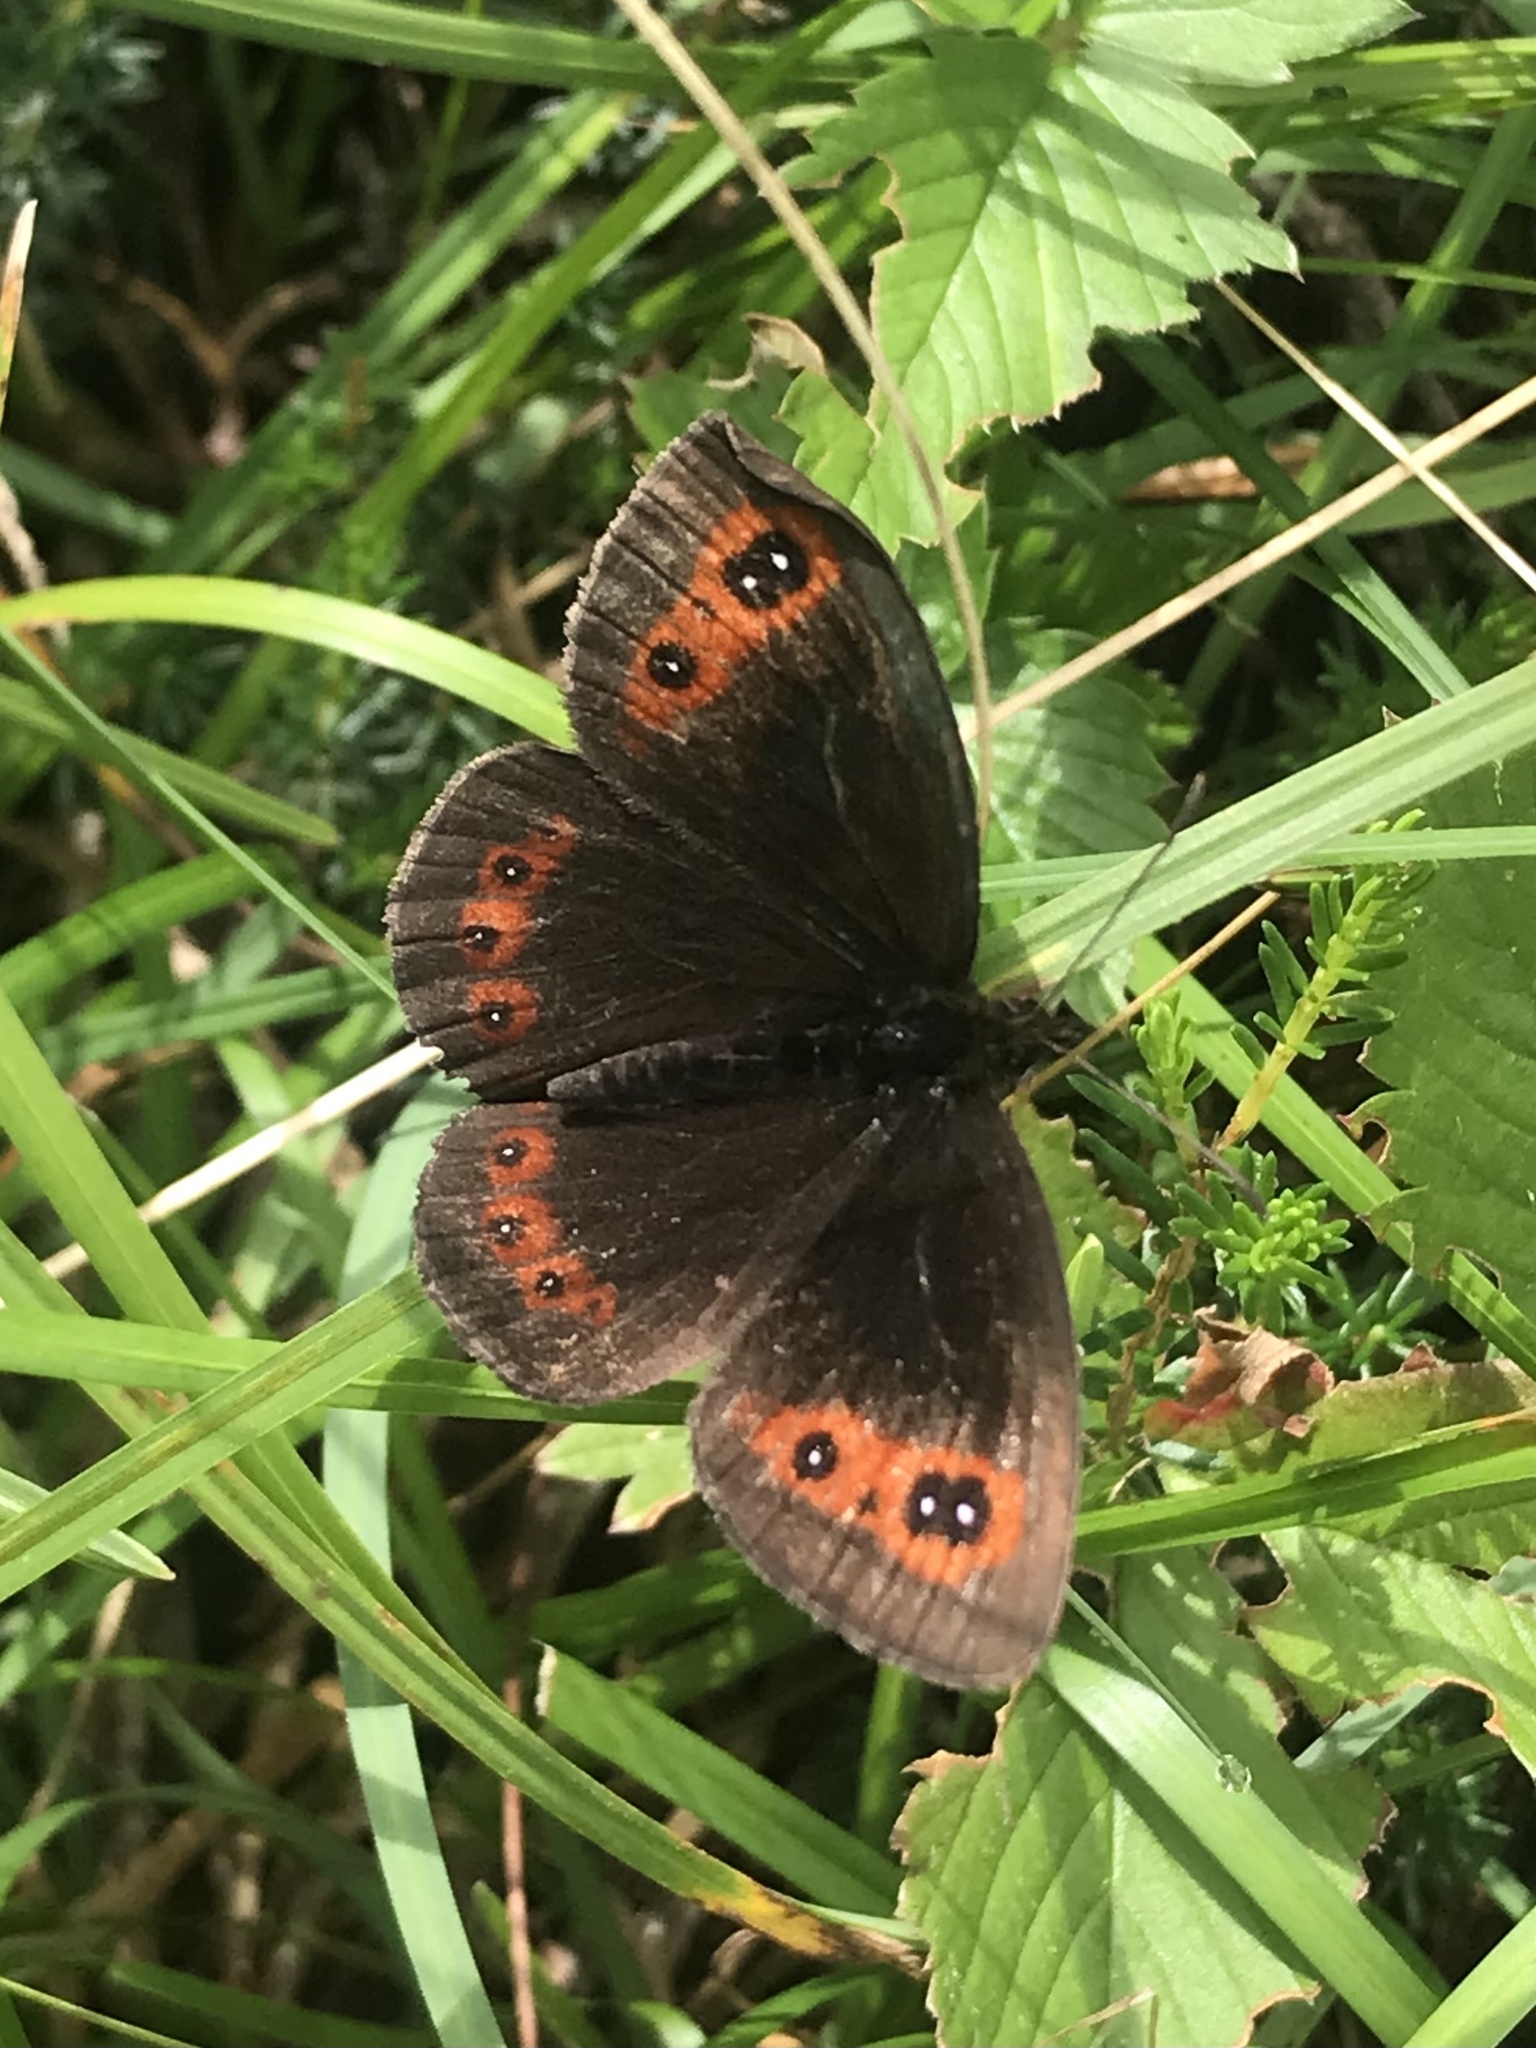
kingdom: Animalia
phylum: Arthropoda
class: Insecta
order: Lepidoptera
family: Nymphalidae
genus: Erebia
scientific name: Erebia aethiops
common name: Scotch argus
